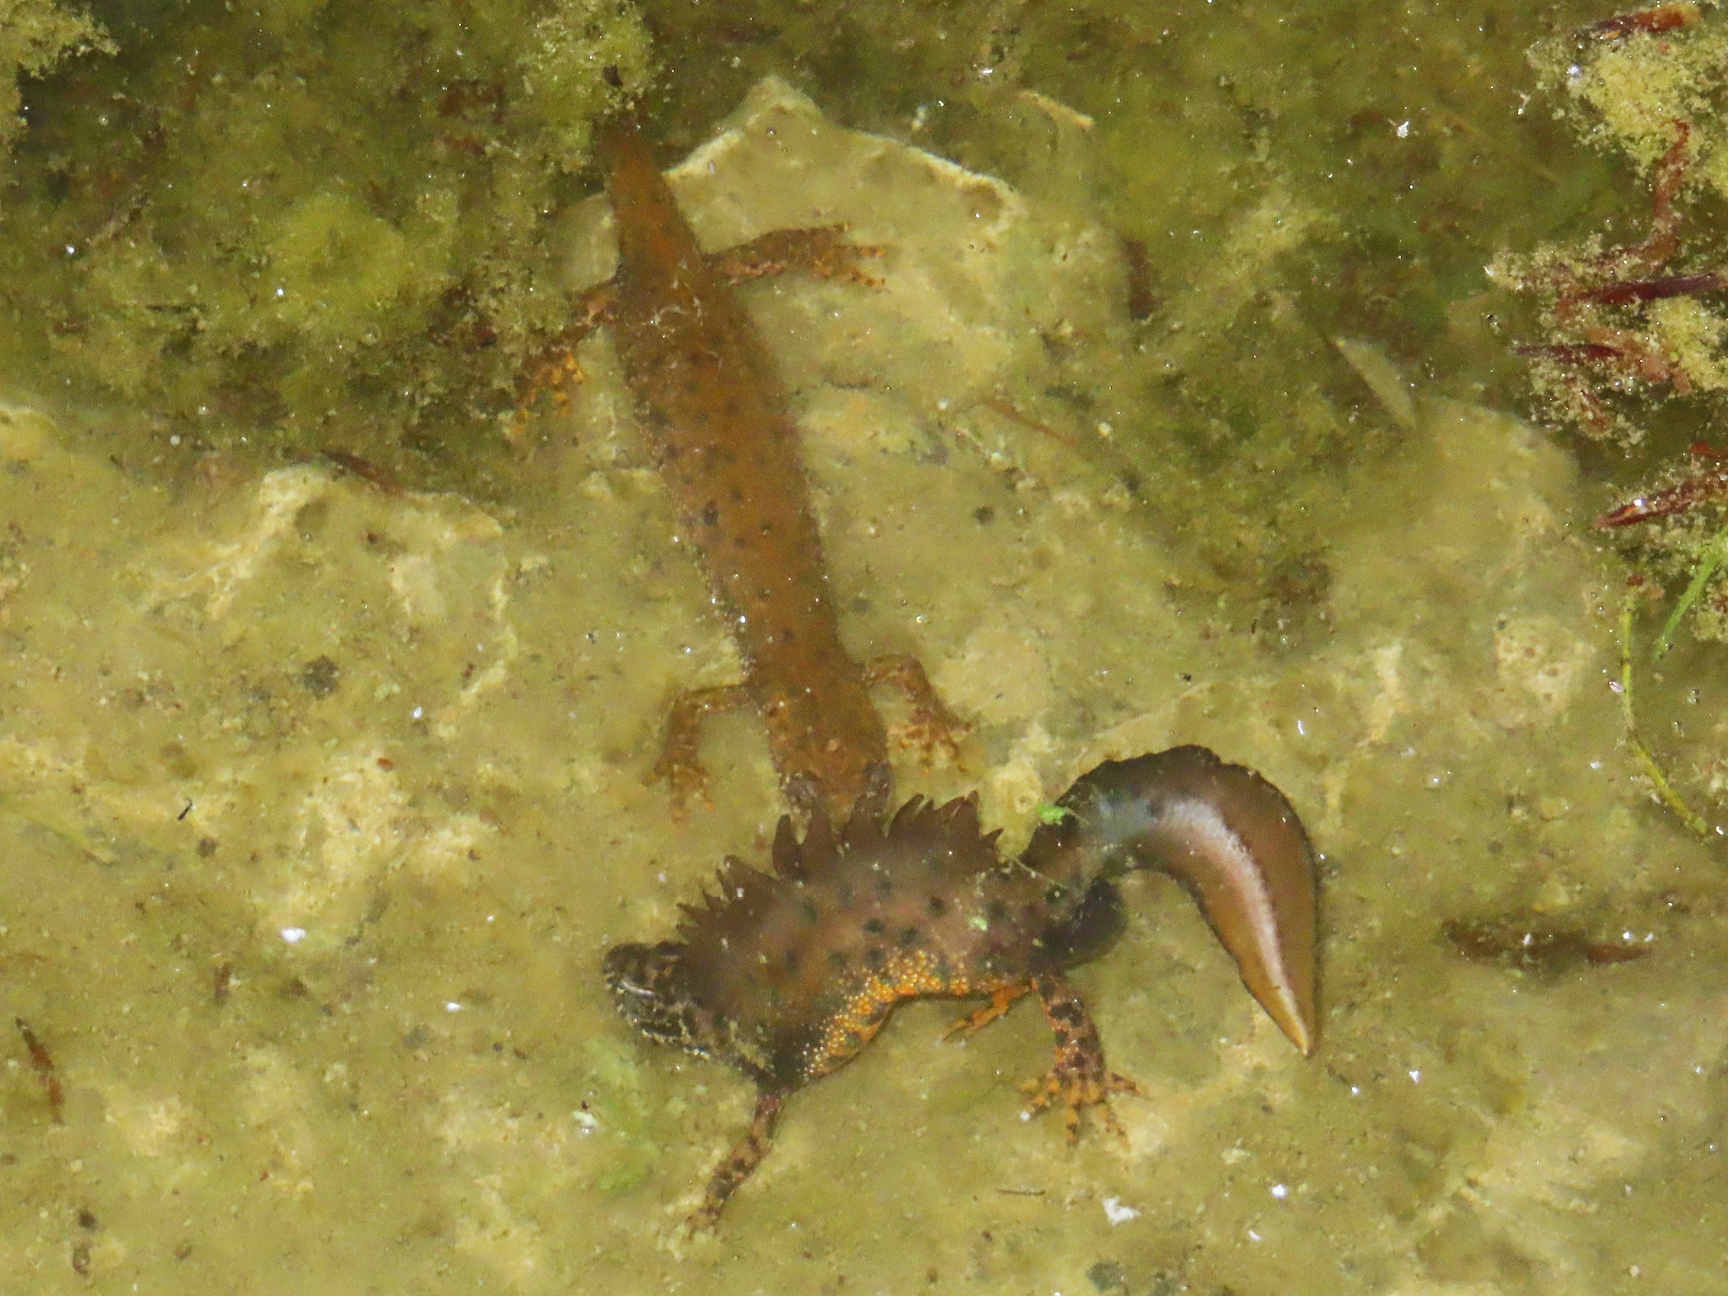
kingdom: Animalia
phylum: Chordata
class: Amphibia
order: Caudata
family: Salamandridae
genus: Triturus
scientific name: Triturus cristatus
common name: Crested newt
